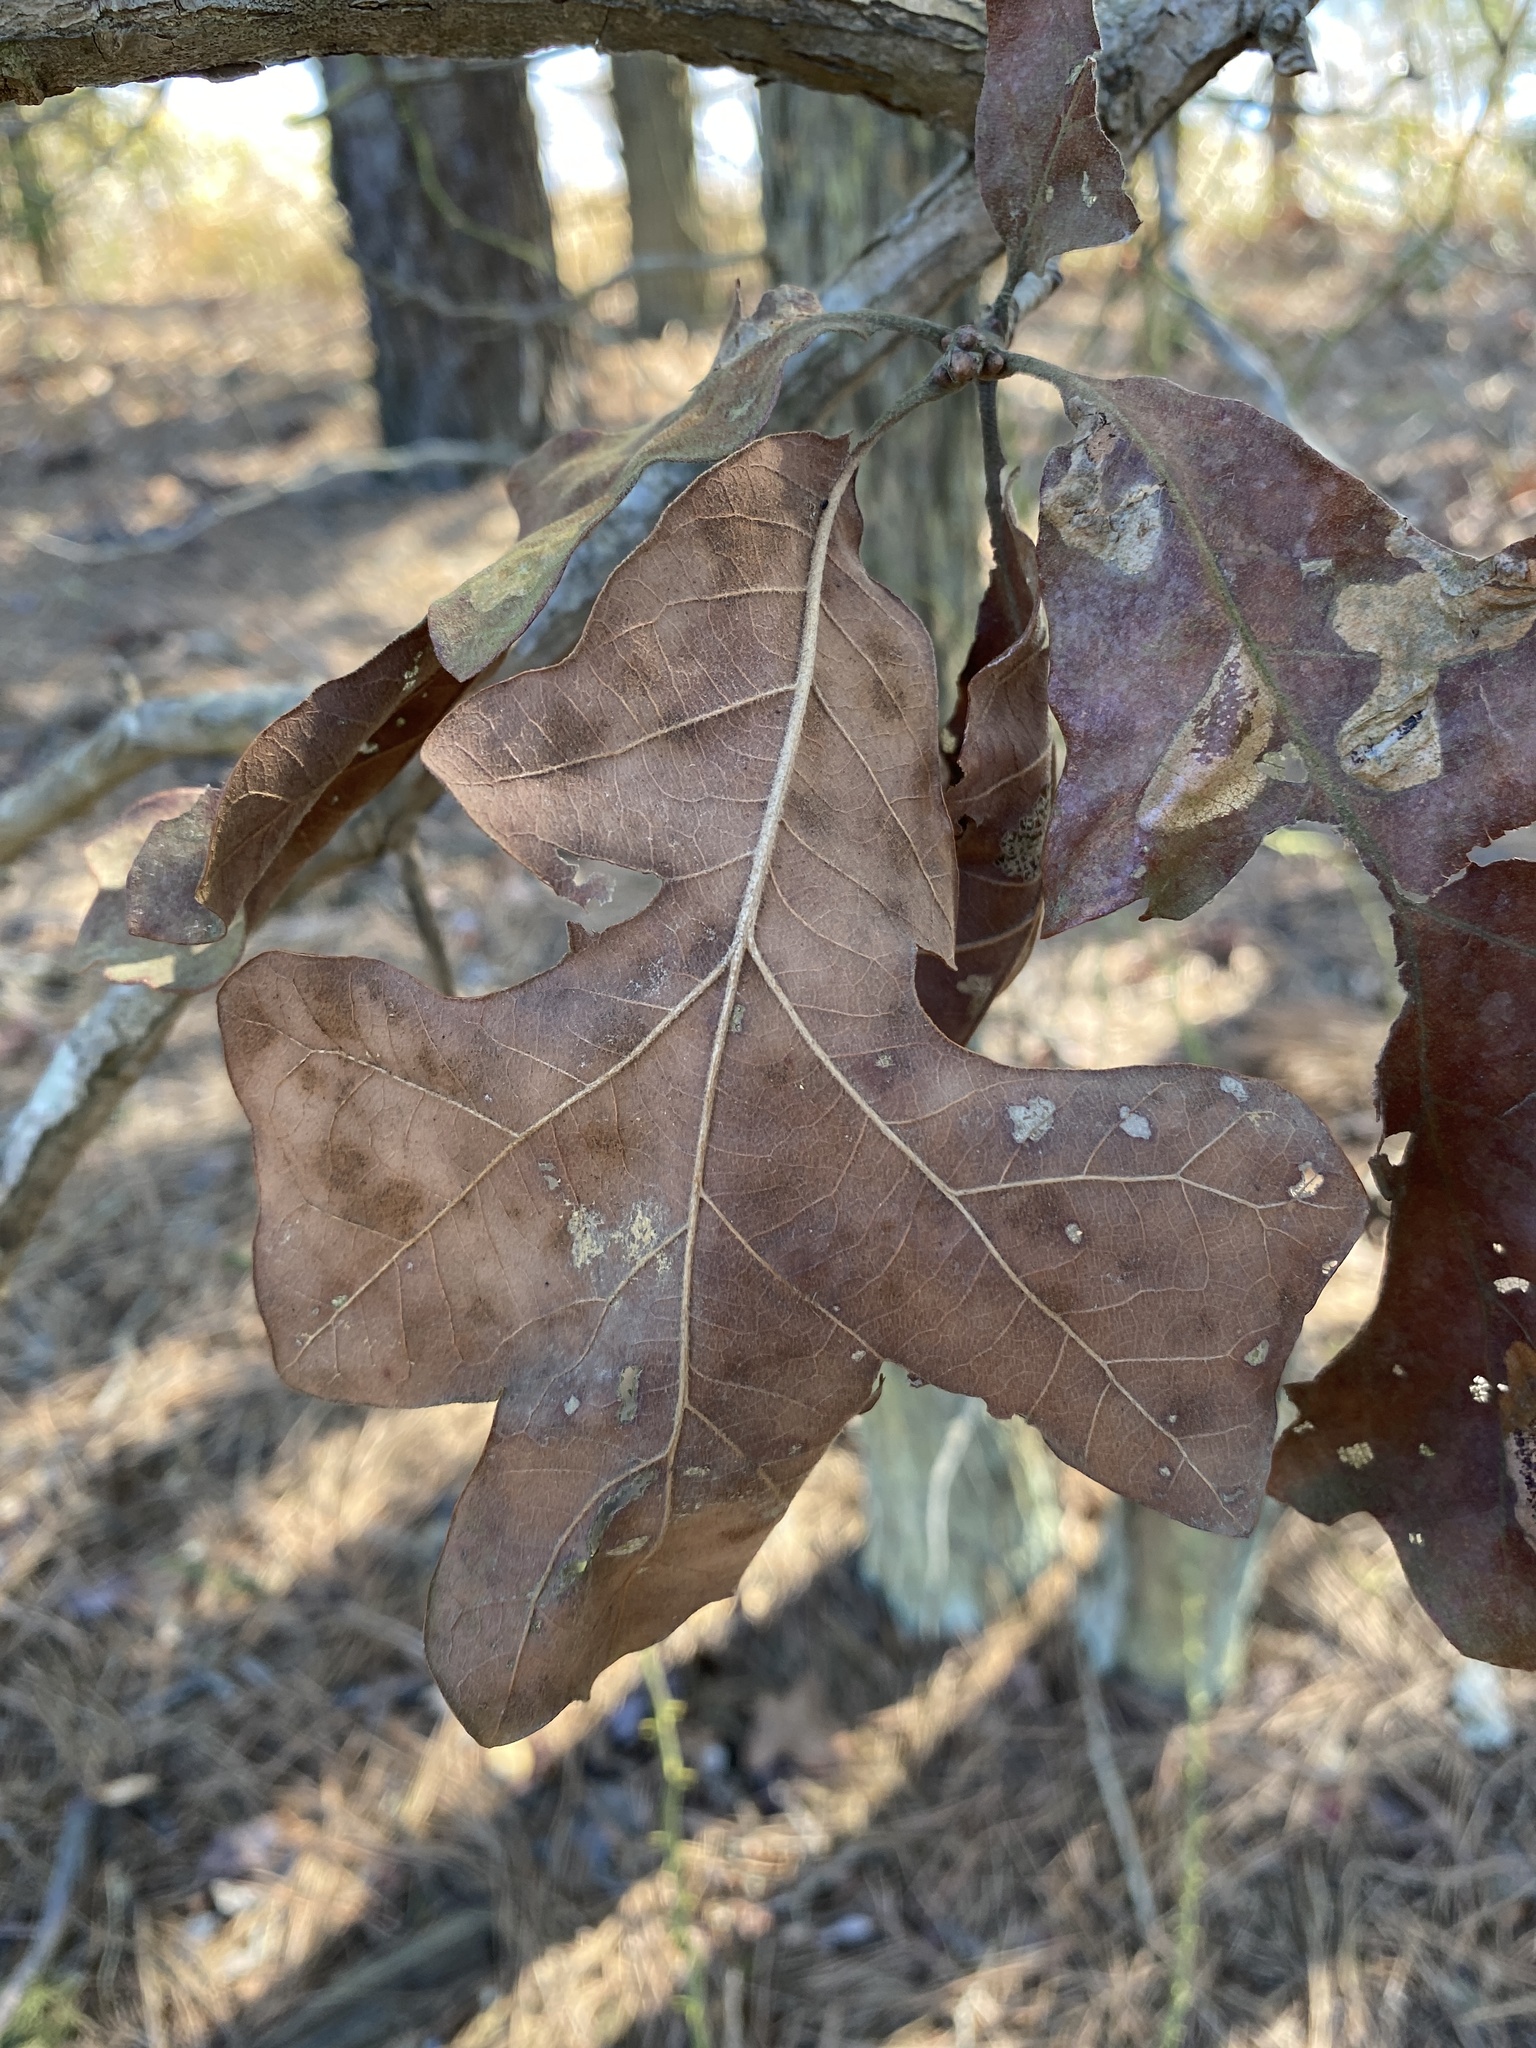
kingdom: Plantae
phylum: Tracheophyta
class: Magnoliopsida
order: Fagales
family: Fagaceae
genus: Quercus
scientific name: Quercus stellata
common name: Post oak
